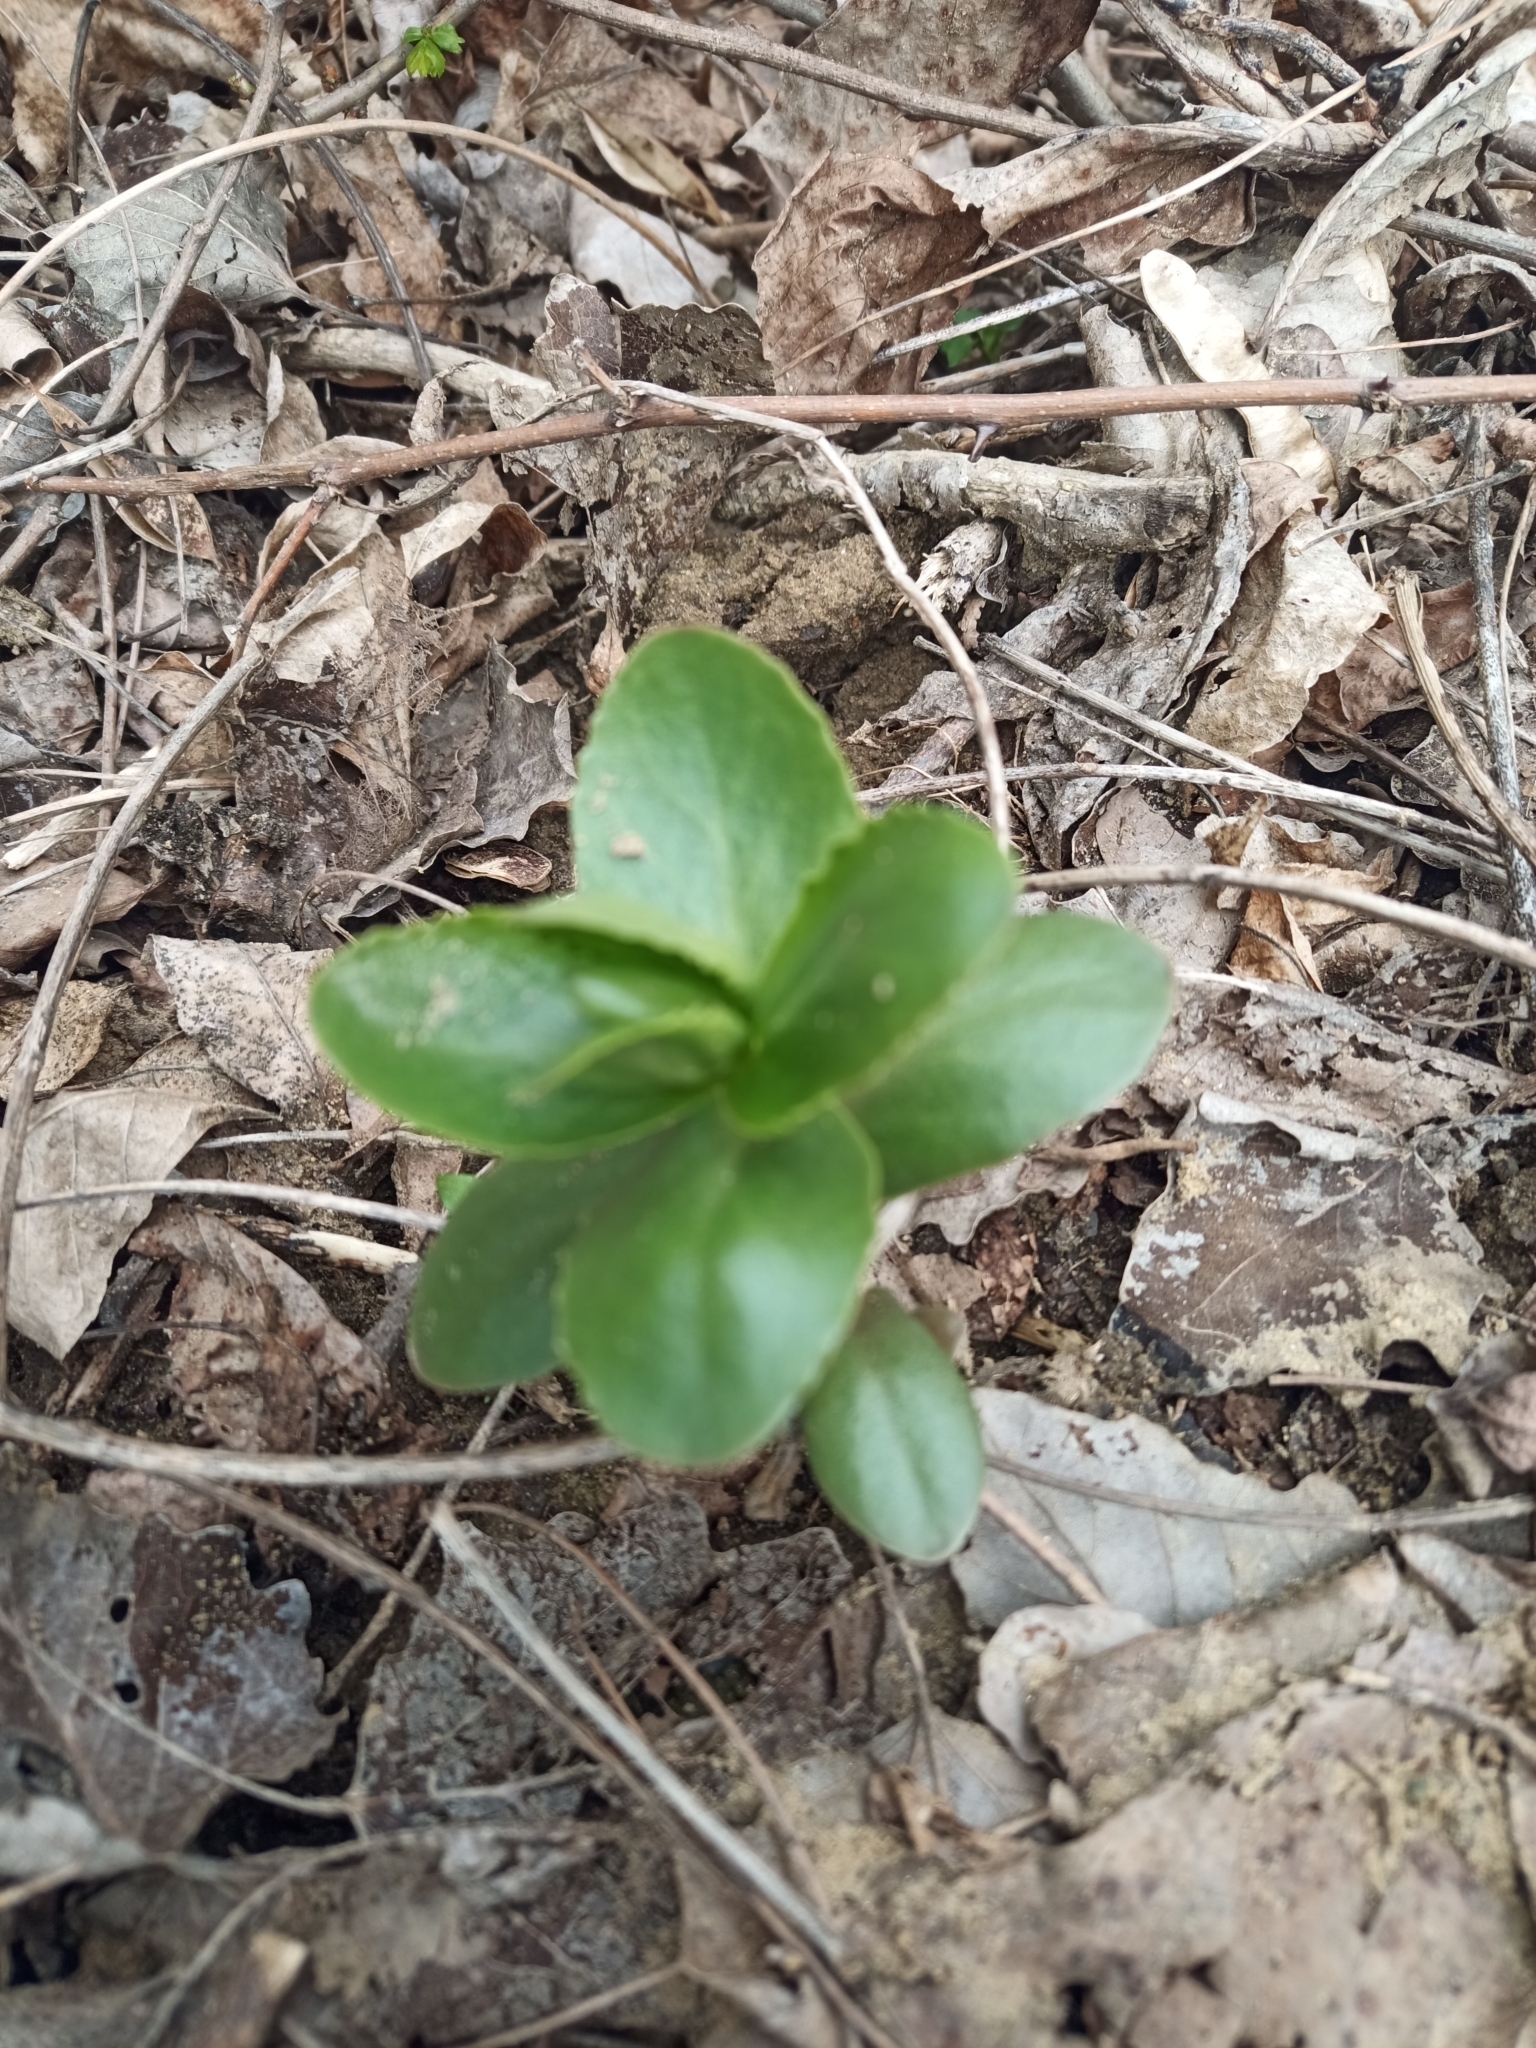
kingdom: Plantae
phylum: Tracheophyta
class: Magnoliopsida
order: Saxifragales
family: Crassulaceae
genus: Hylotelephium
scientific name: Hylotelephium maximum
